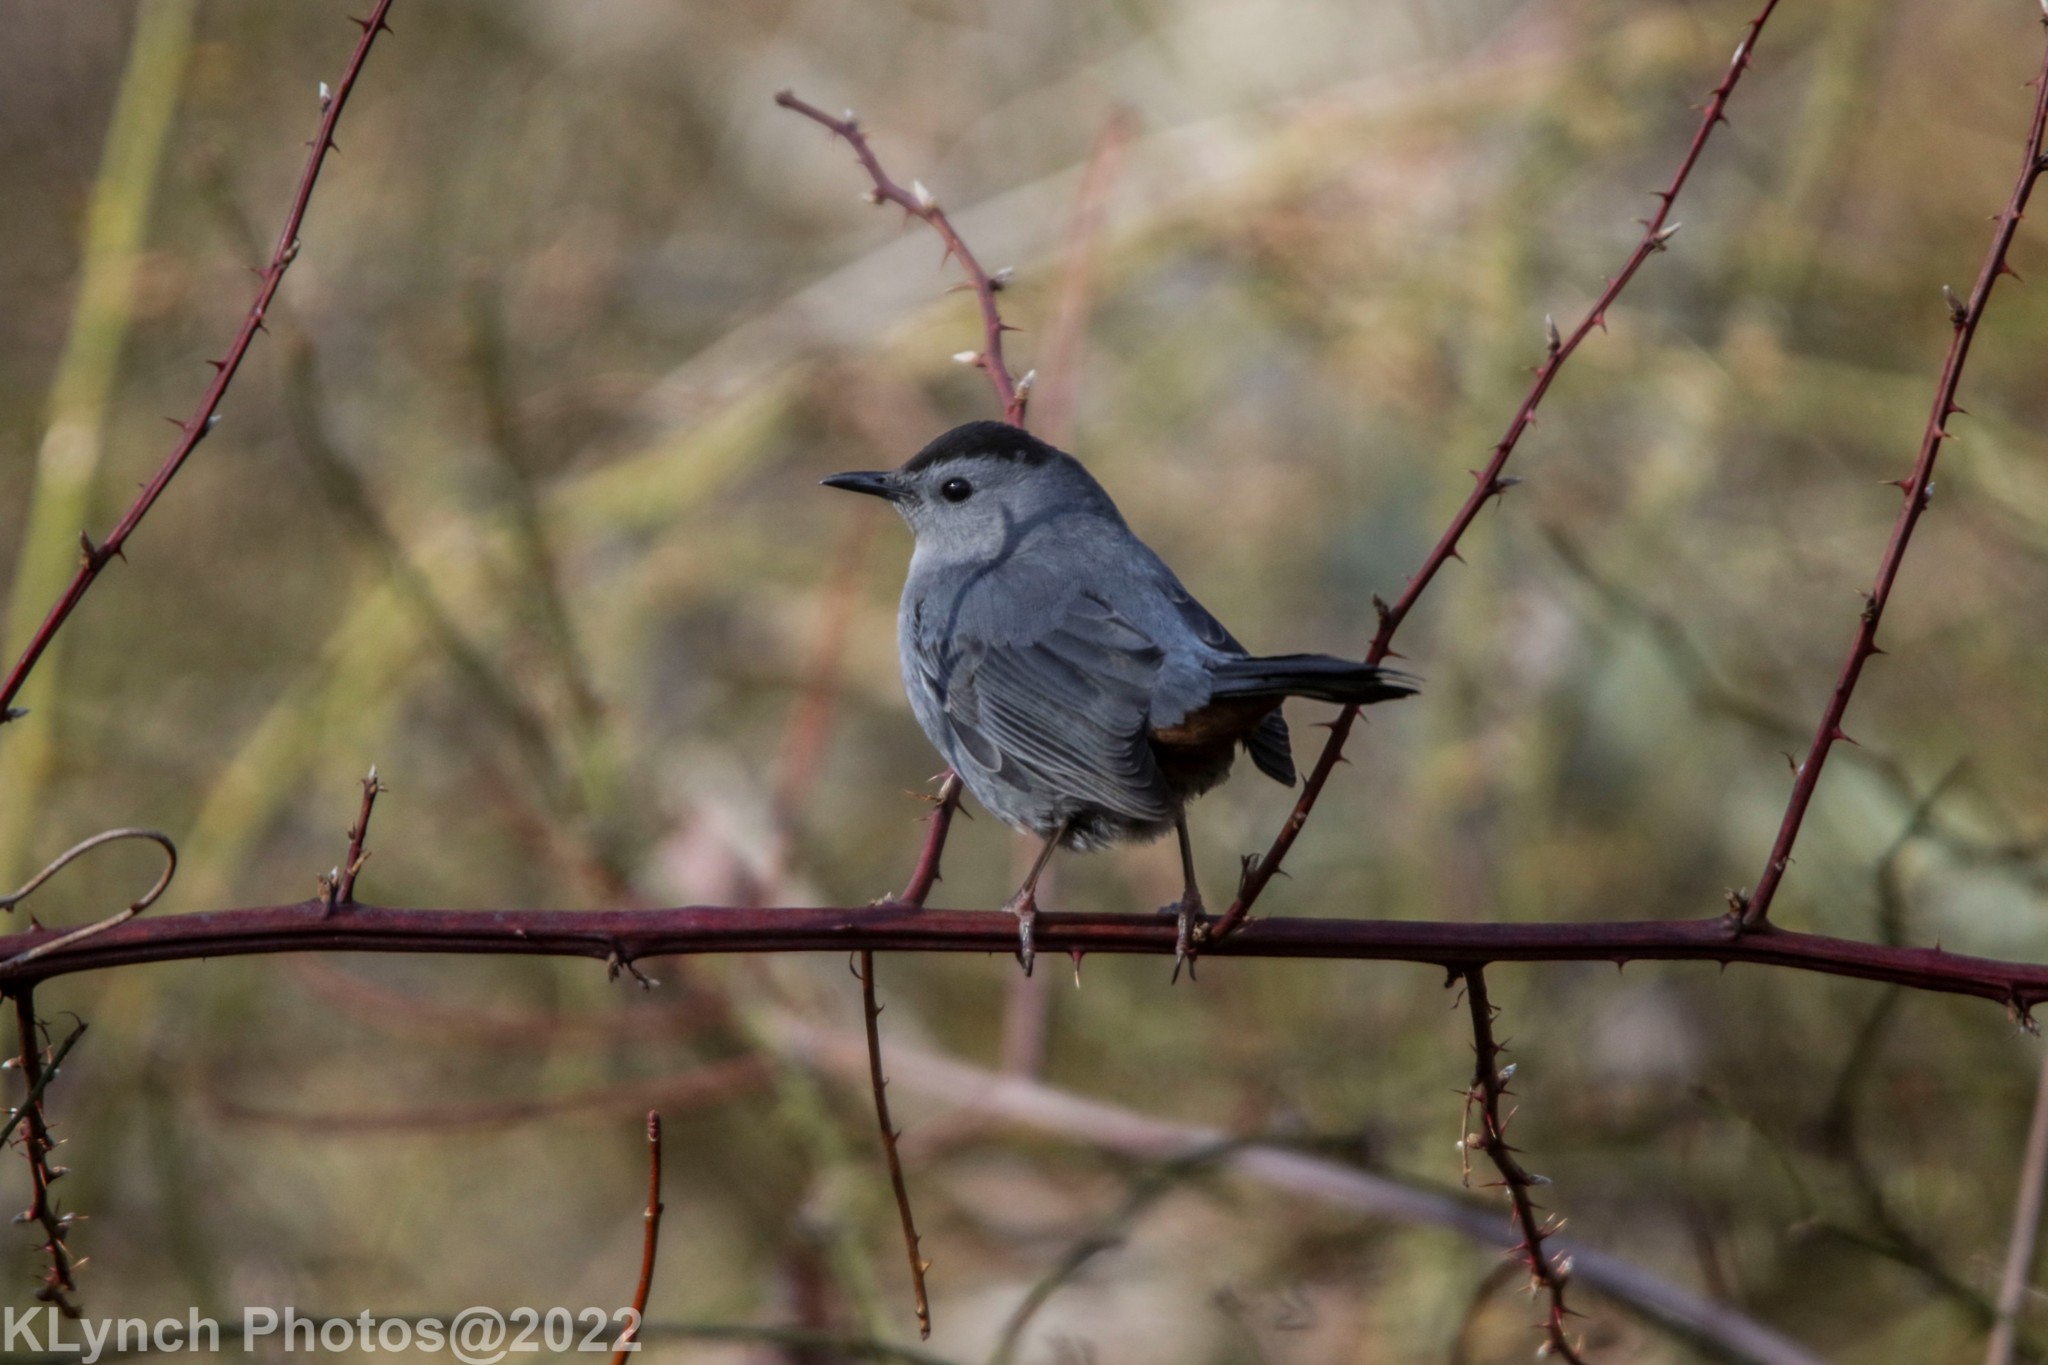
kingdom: Animalia
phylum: Chordata
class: Aves
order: Passeriformes
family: Mimidae
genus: Dumetella
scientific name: Dumetella carolinensis
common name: Gray catbird
